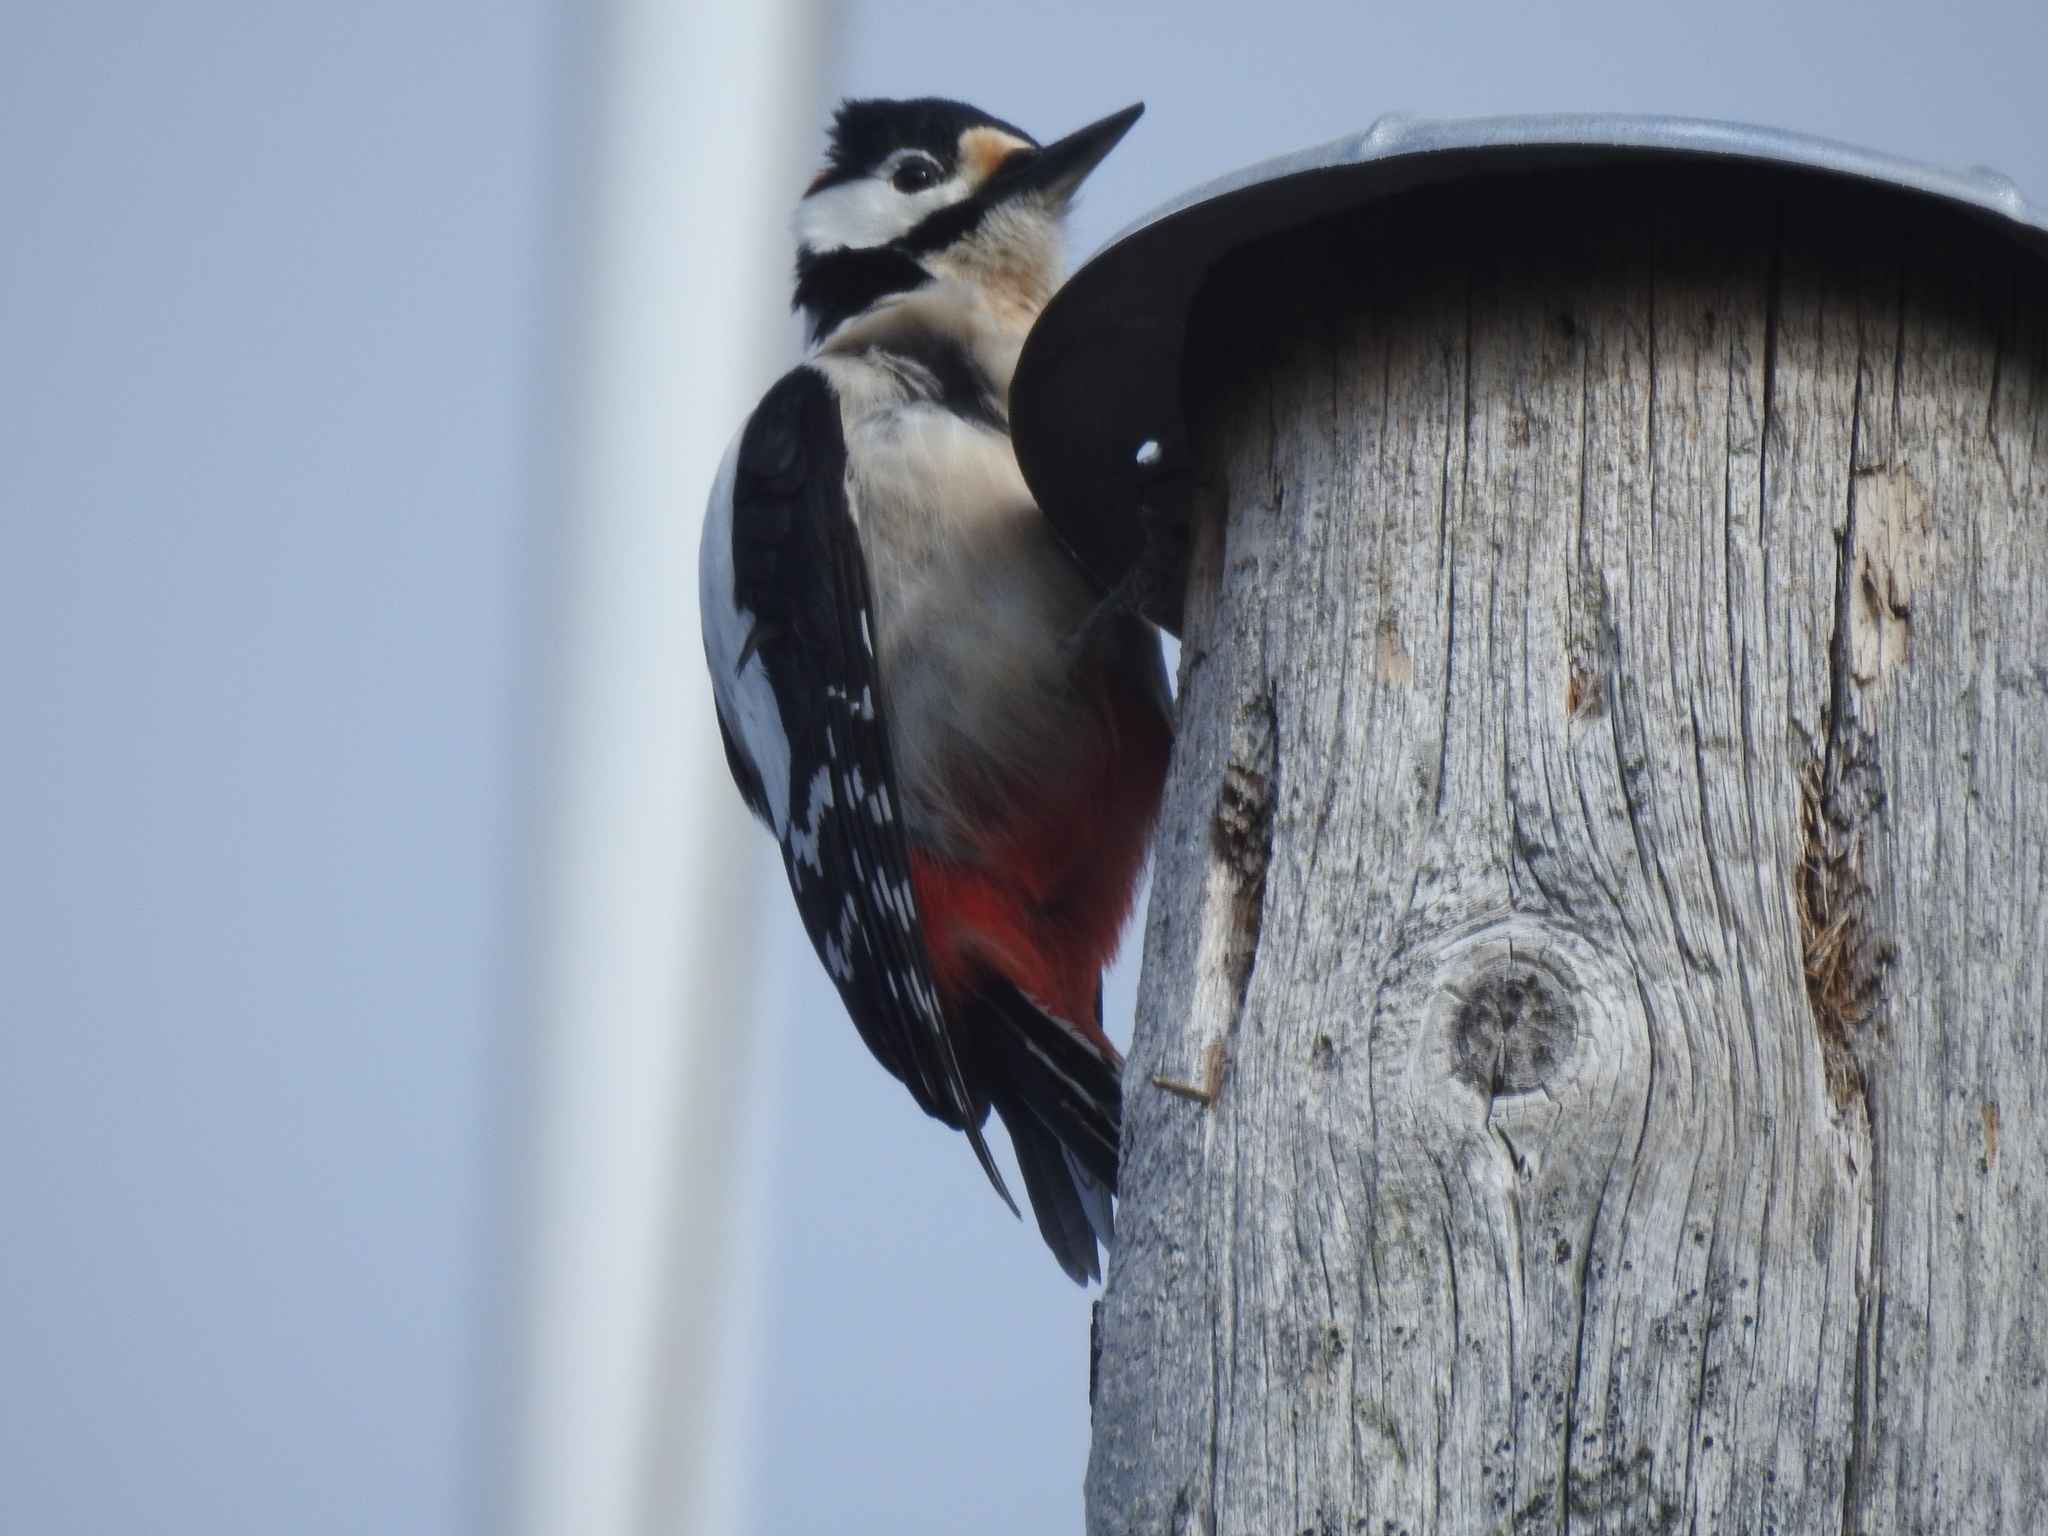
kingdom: Animalia
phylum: Chordata
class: Aves
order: Piciformes
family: Picidae
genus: Dendrocopos
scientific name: Dendrocopos major
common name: Great spotted woodpecker
